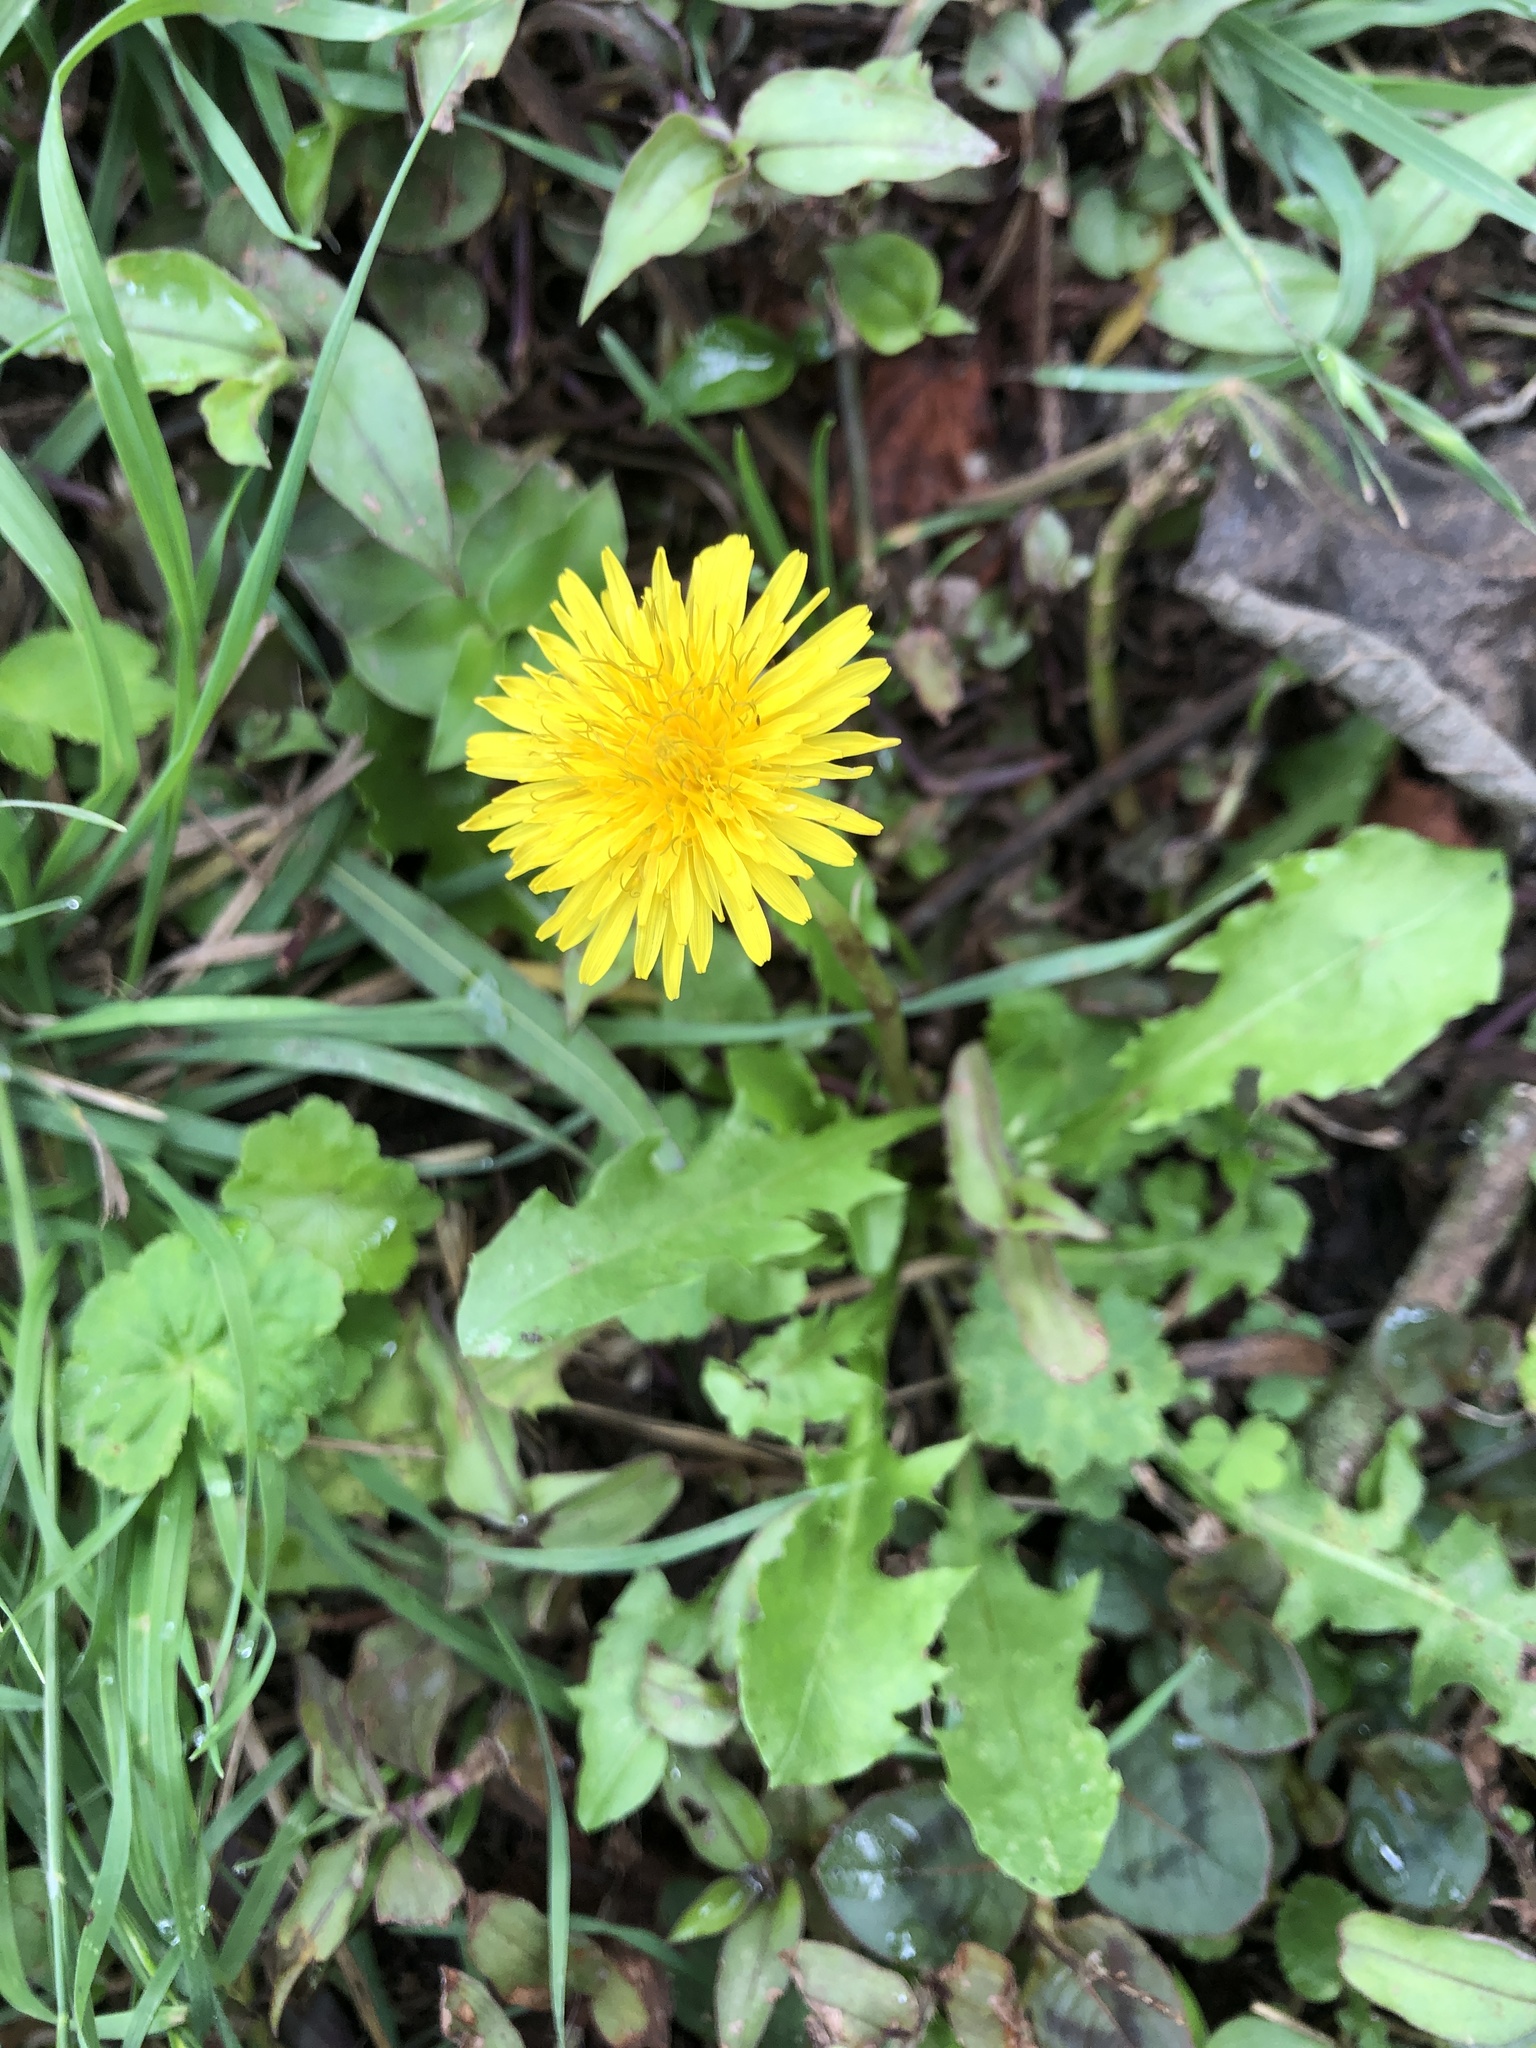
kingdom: Plantae
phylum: Tracheophyta
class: Magnoliopsida
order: Asterales
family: Asteraceae
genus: Taraxacum
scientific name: Taraxacum officinale
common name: Common dandelion
